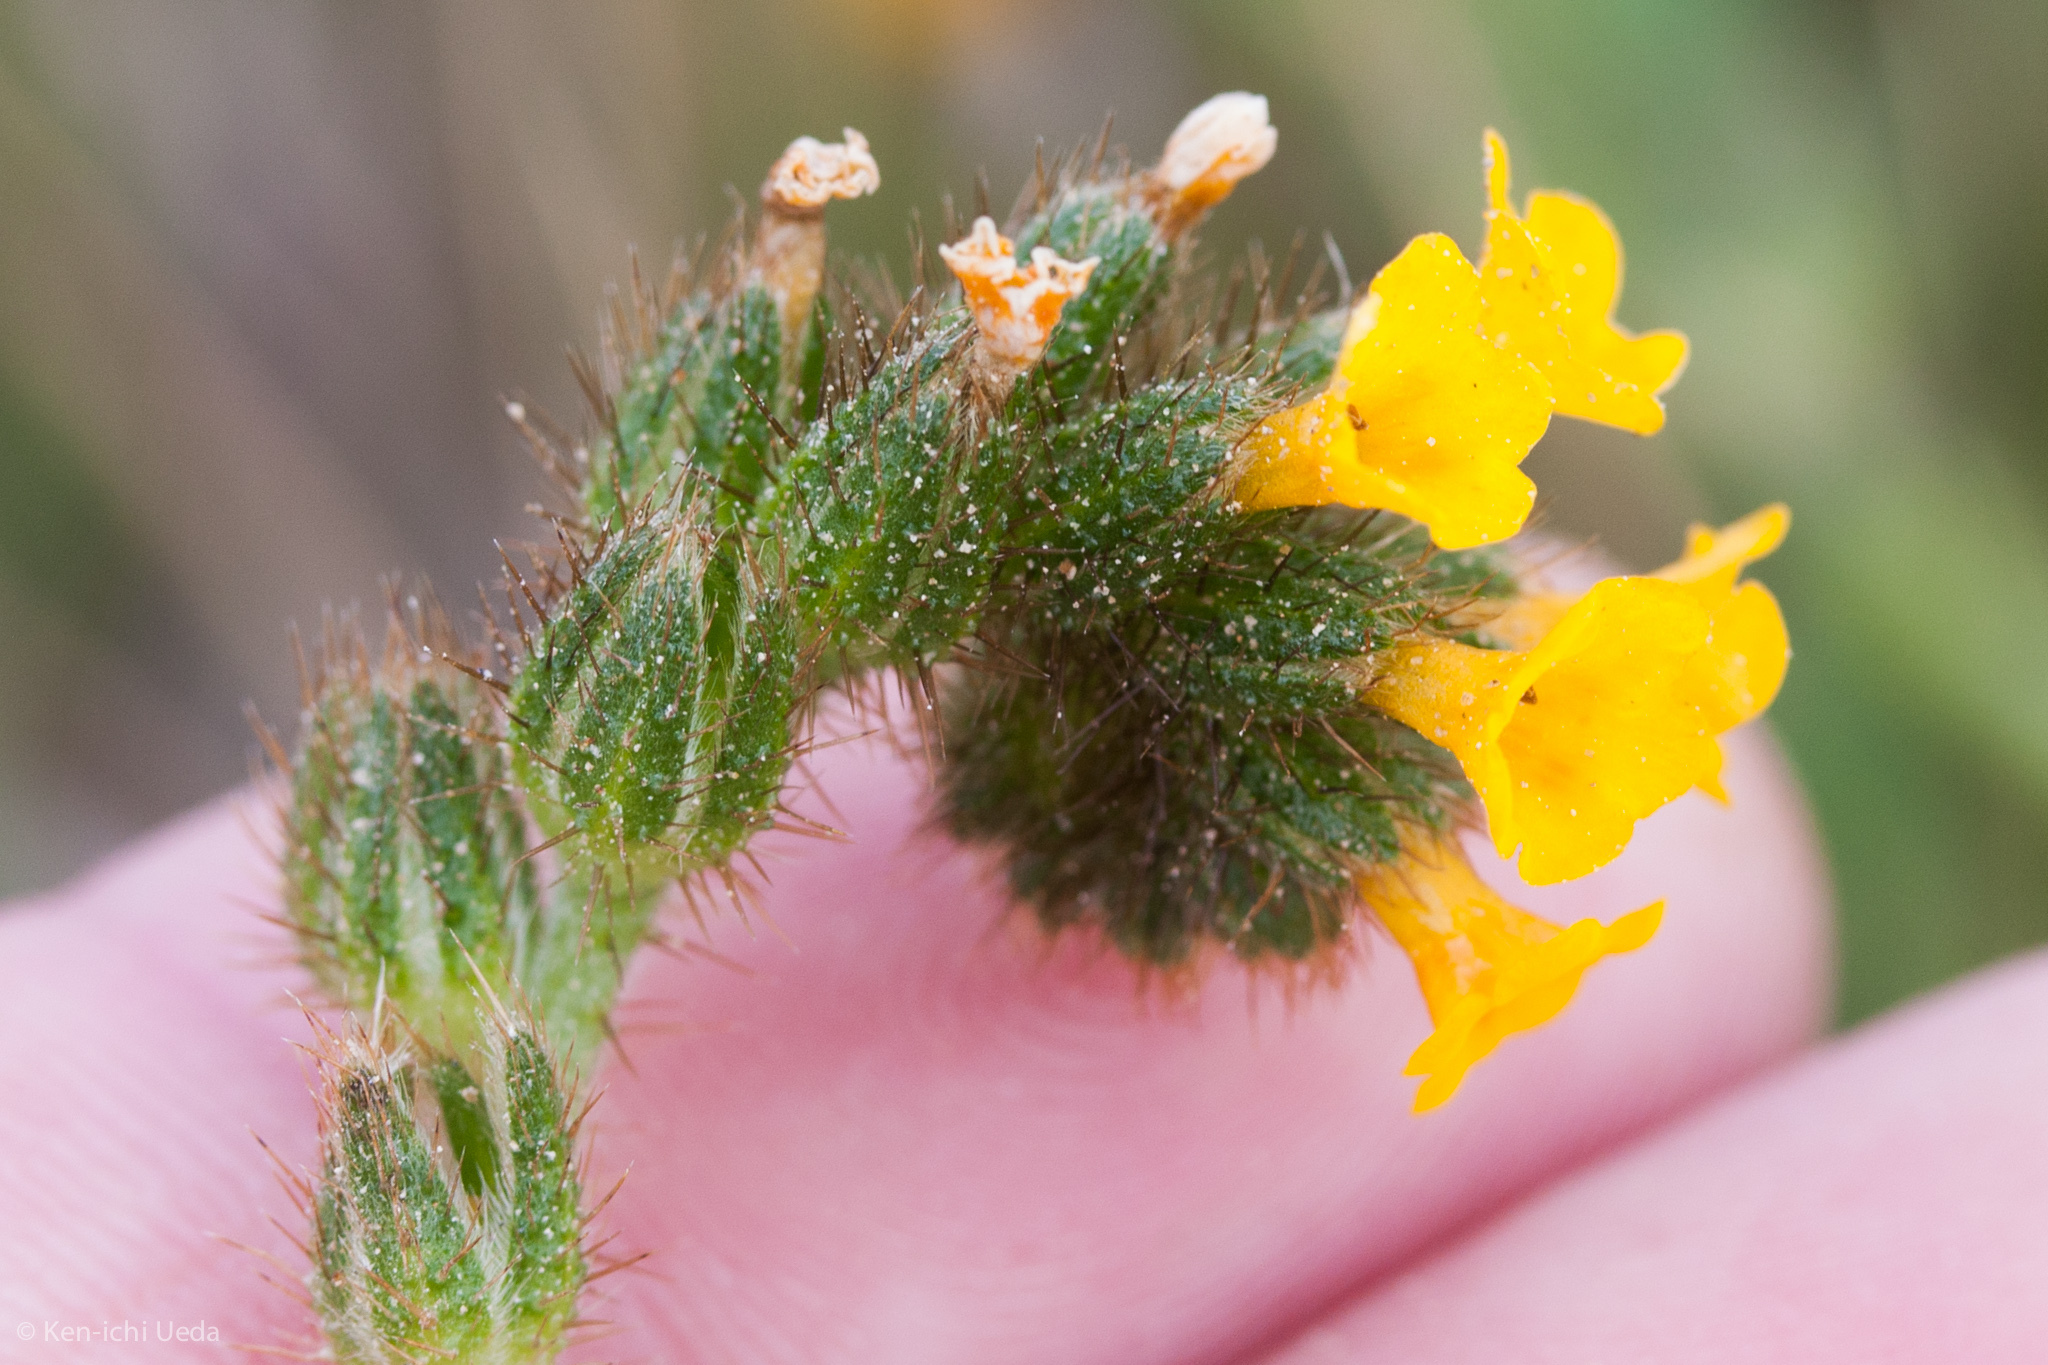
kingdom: Plantae
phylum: Tracheophyta
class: Magnoliopsida
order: Boraginales
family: Boraginaceae
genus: Amsinckia
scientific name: Amsinckia
